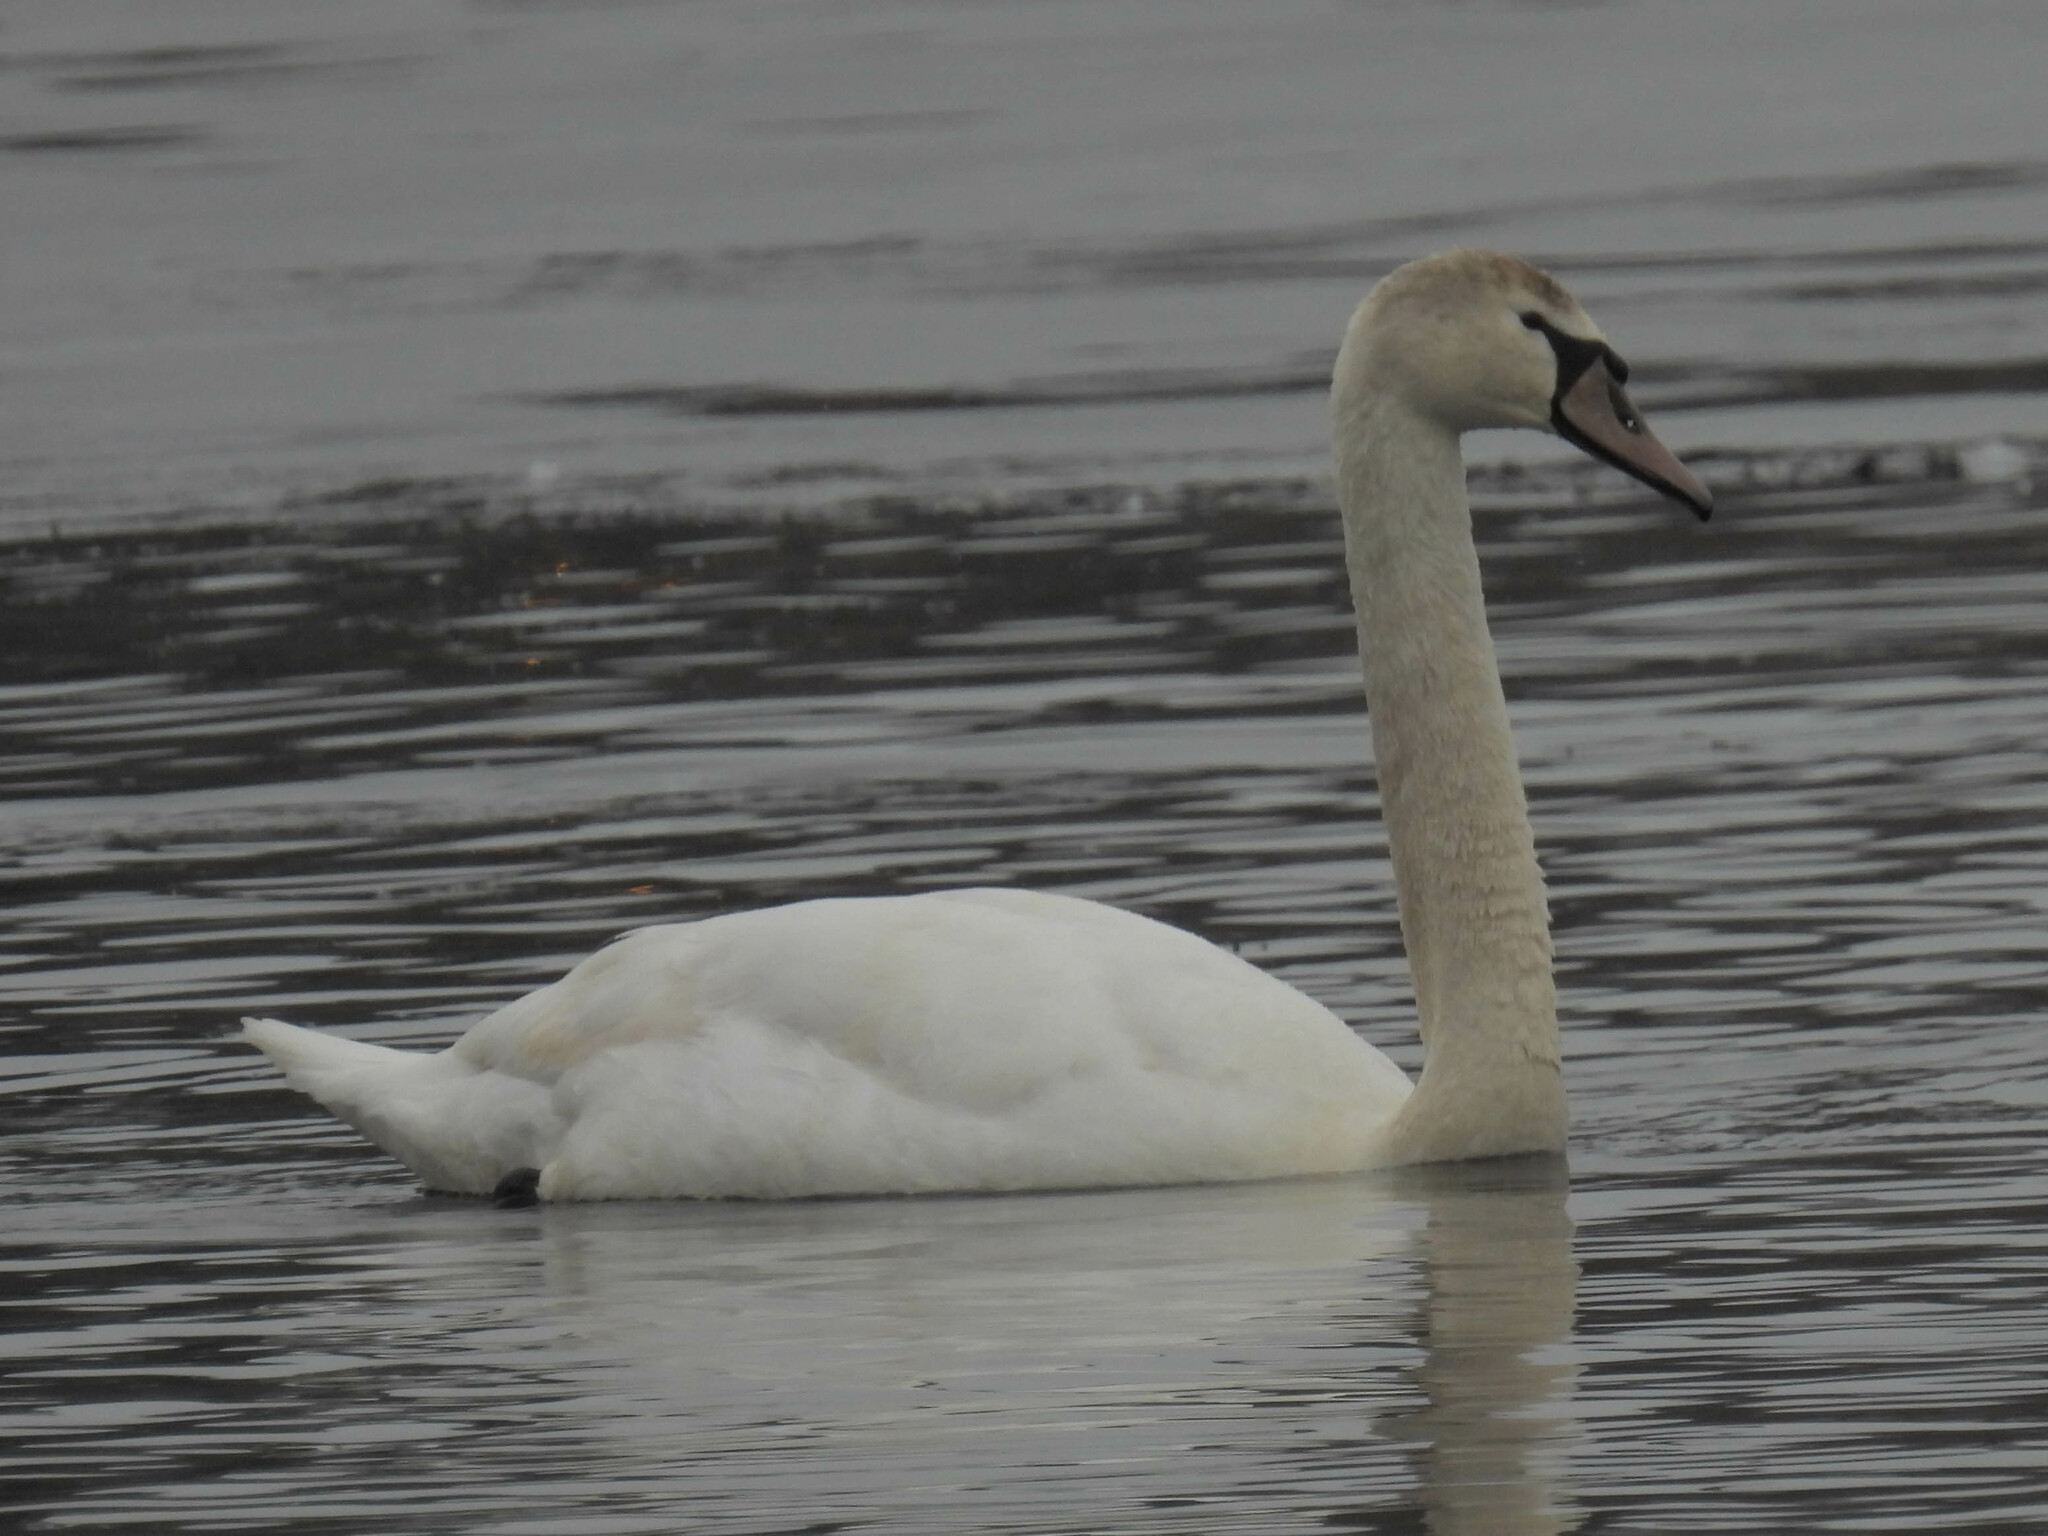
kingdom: Animalia
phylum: Chordata
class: Aves
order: Anseriformes
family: Anatidae
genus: Cygnus
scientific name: Cygnus olor
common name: Mute swan
